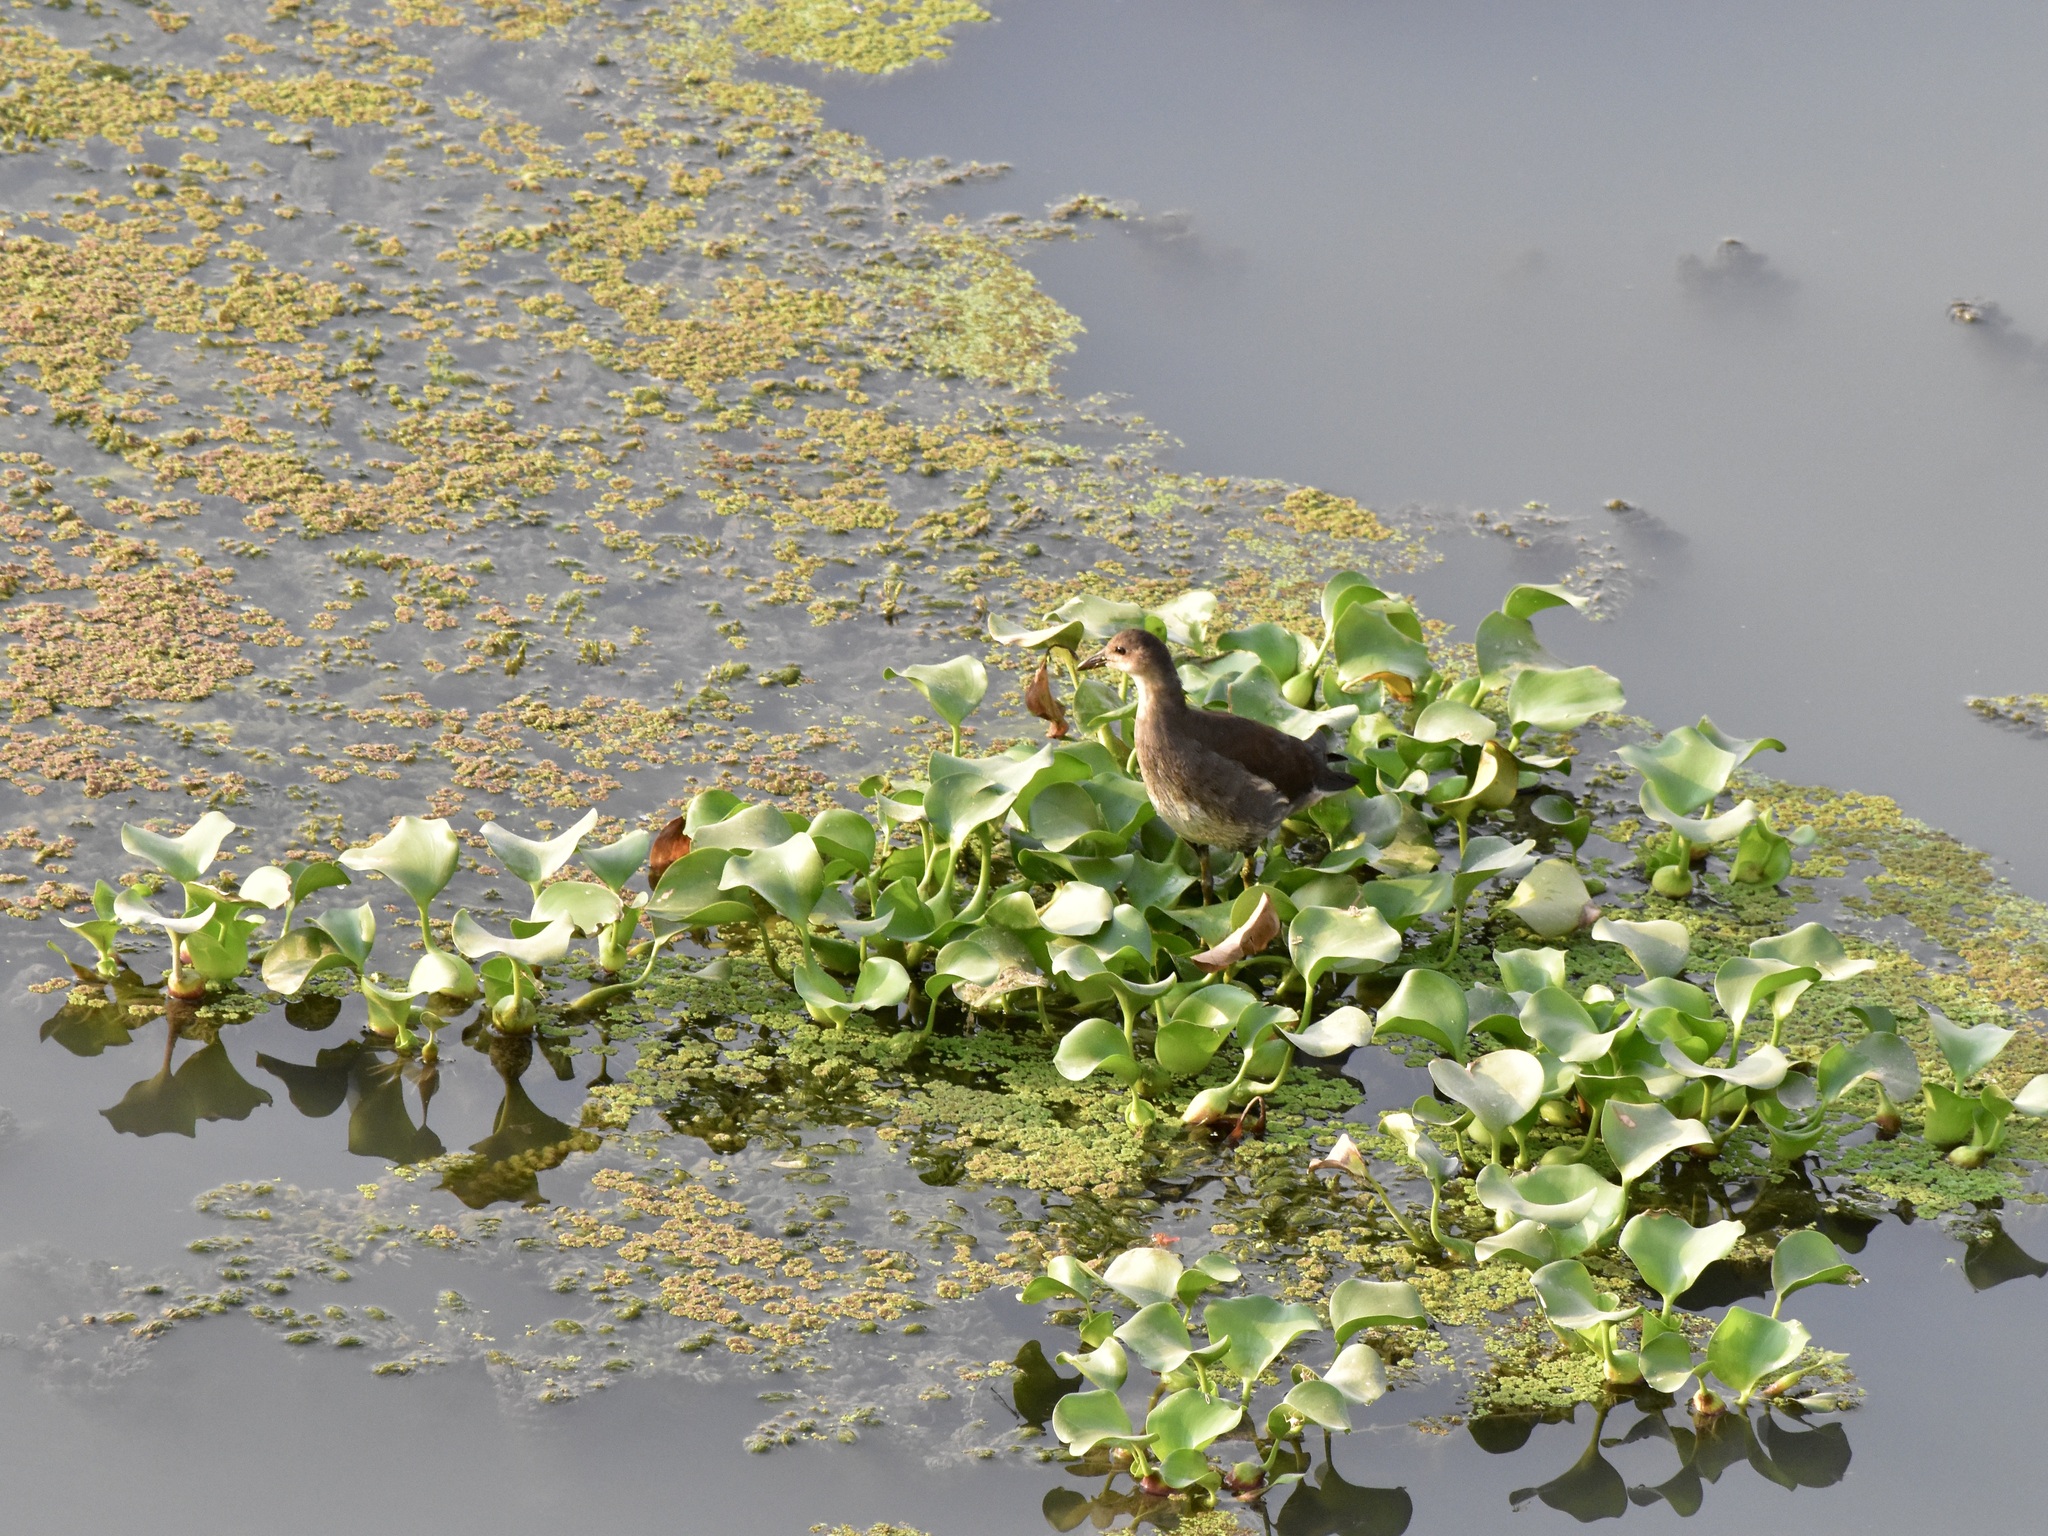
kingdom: Animalia
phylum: Chordata
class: Aves
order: Gruiformes
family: Rallidae
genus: Gallinula
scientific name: Gallinula chloropus
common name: Common moorhen
